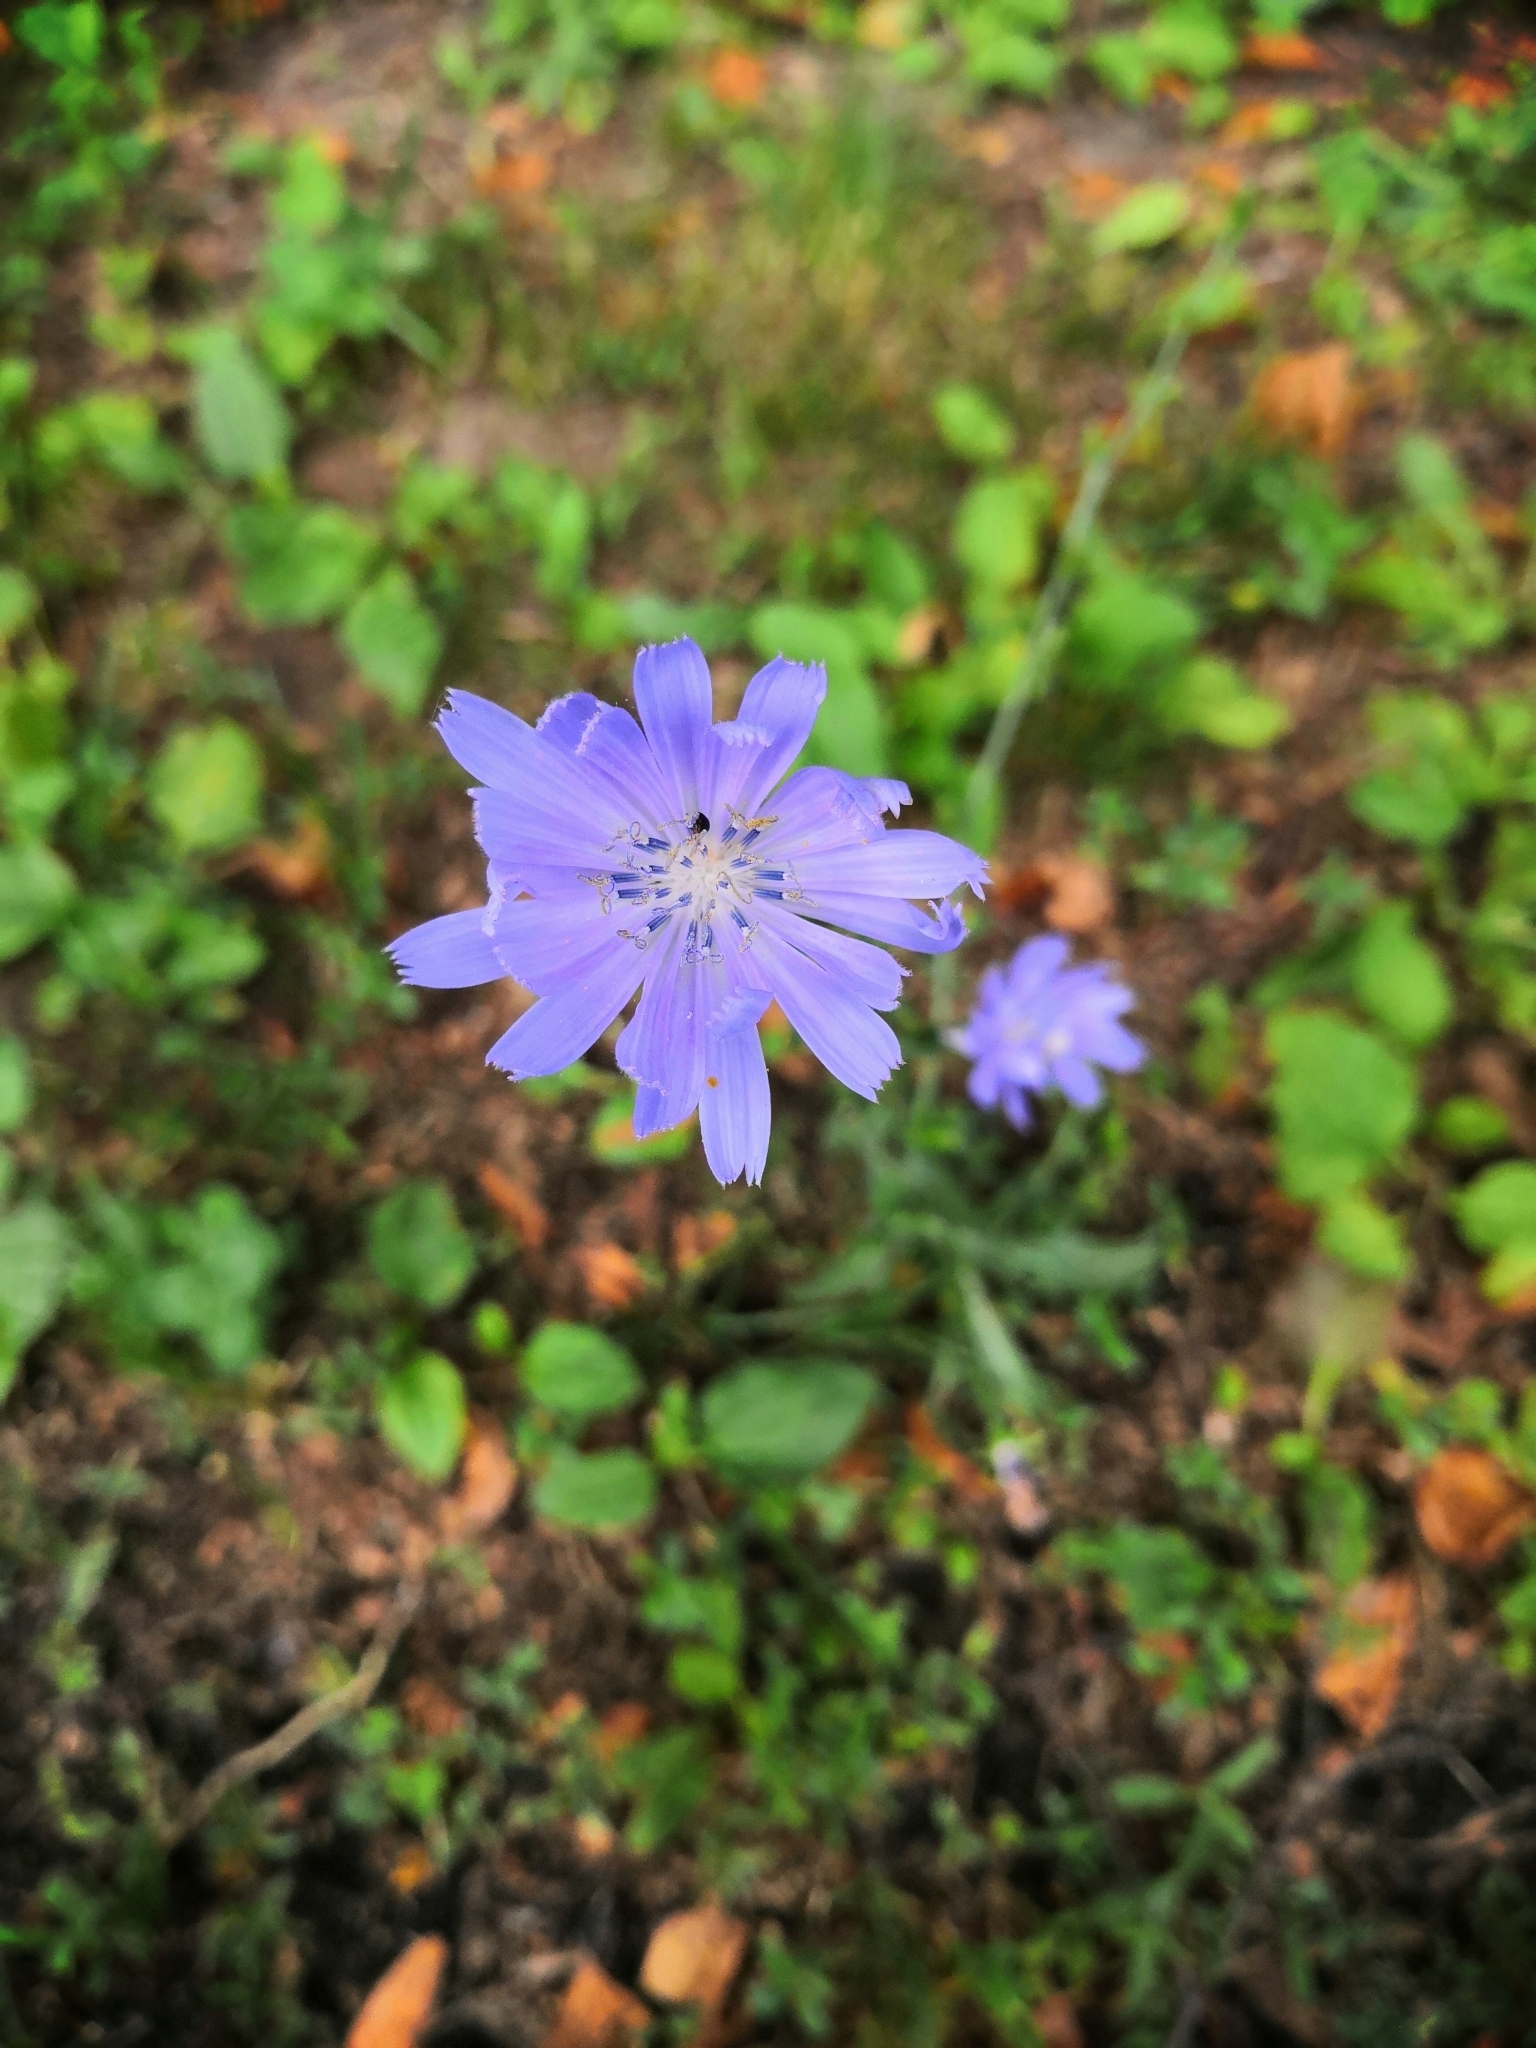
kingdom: Plantae
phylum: Tracheophyta
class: Magnoliopsida
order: Asterales
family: Asteraceae
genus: Cichorium
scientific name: Cichorium intybus
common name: Chicory
